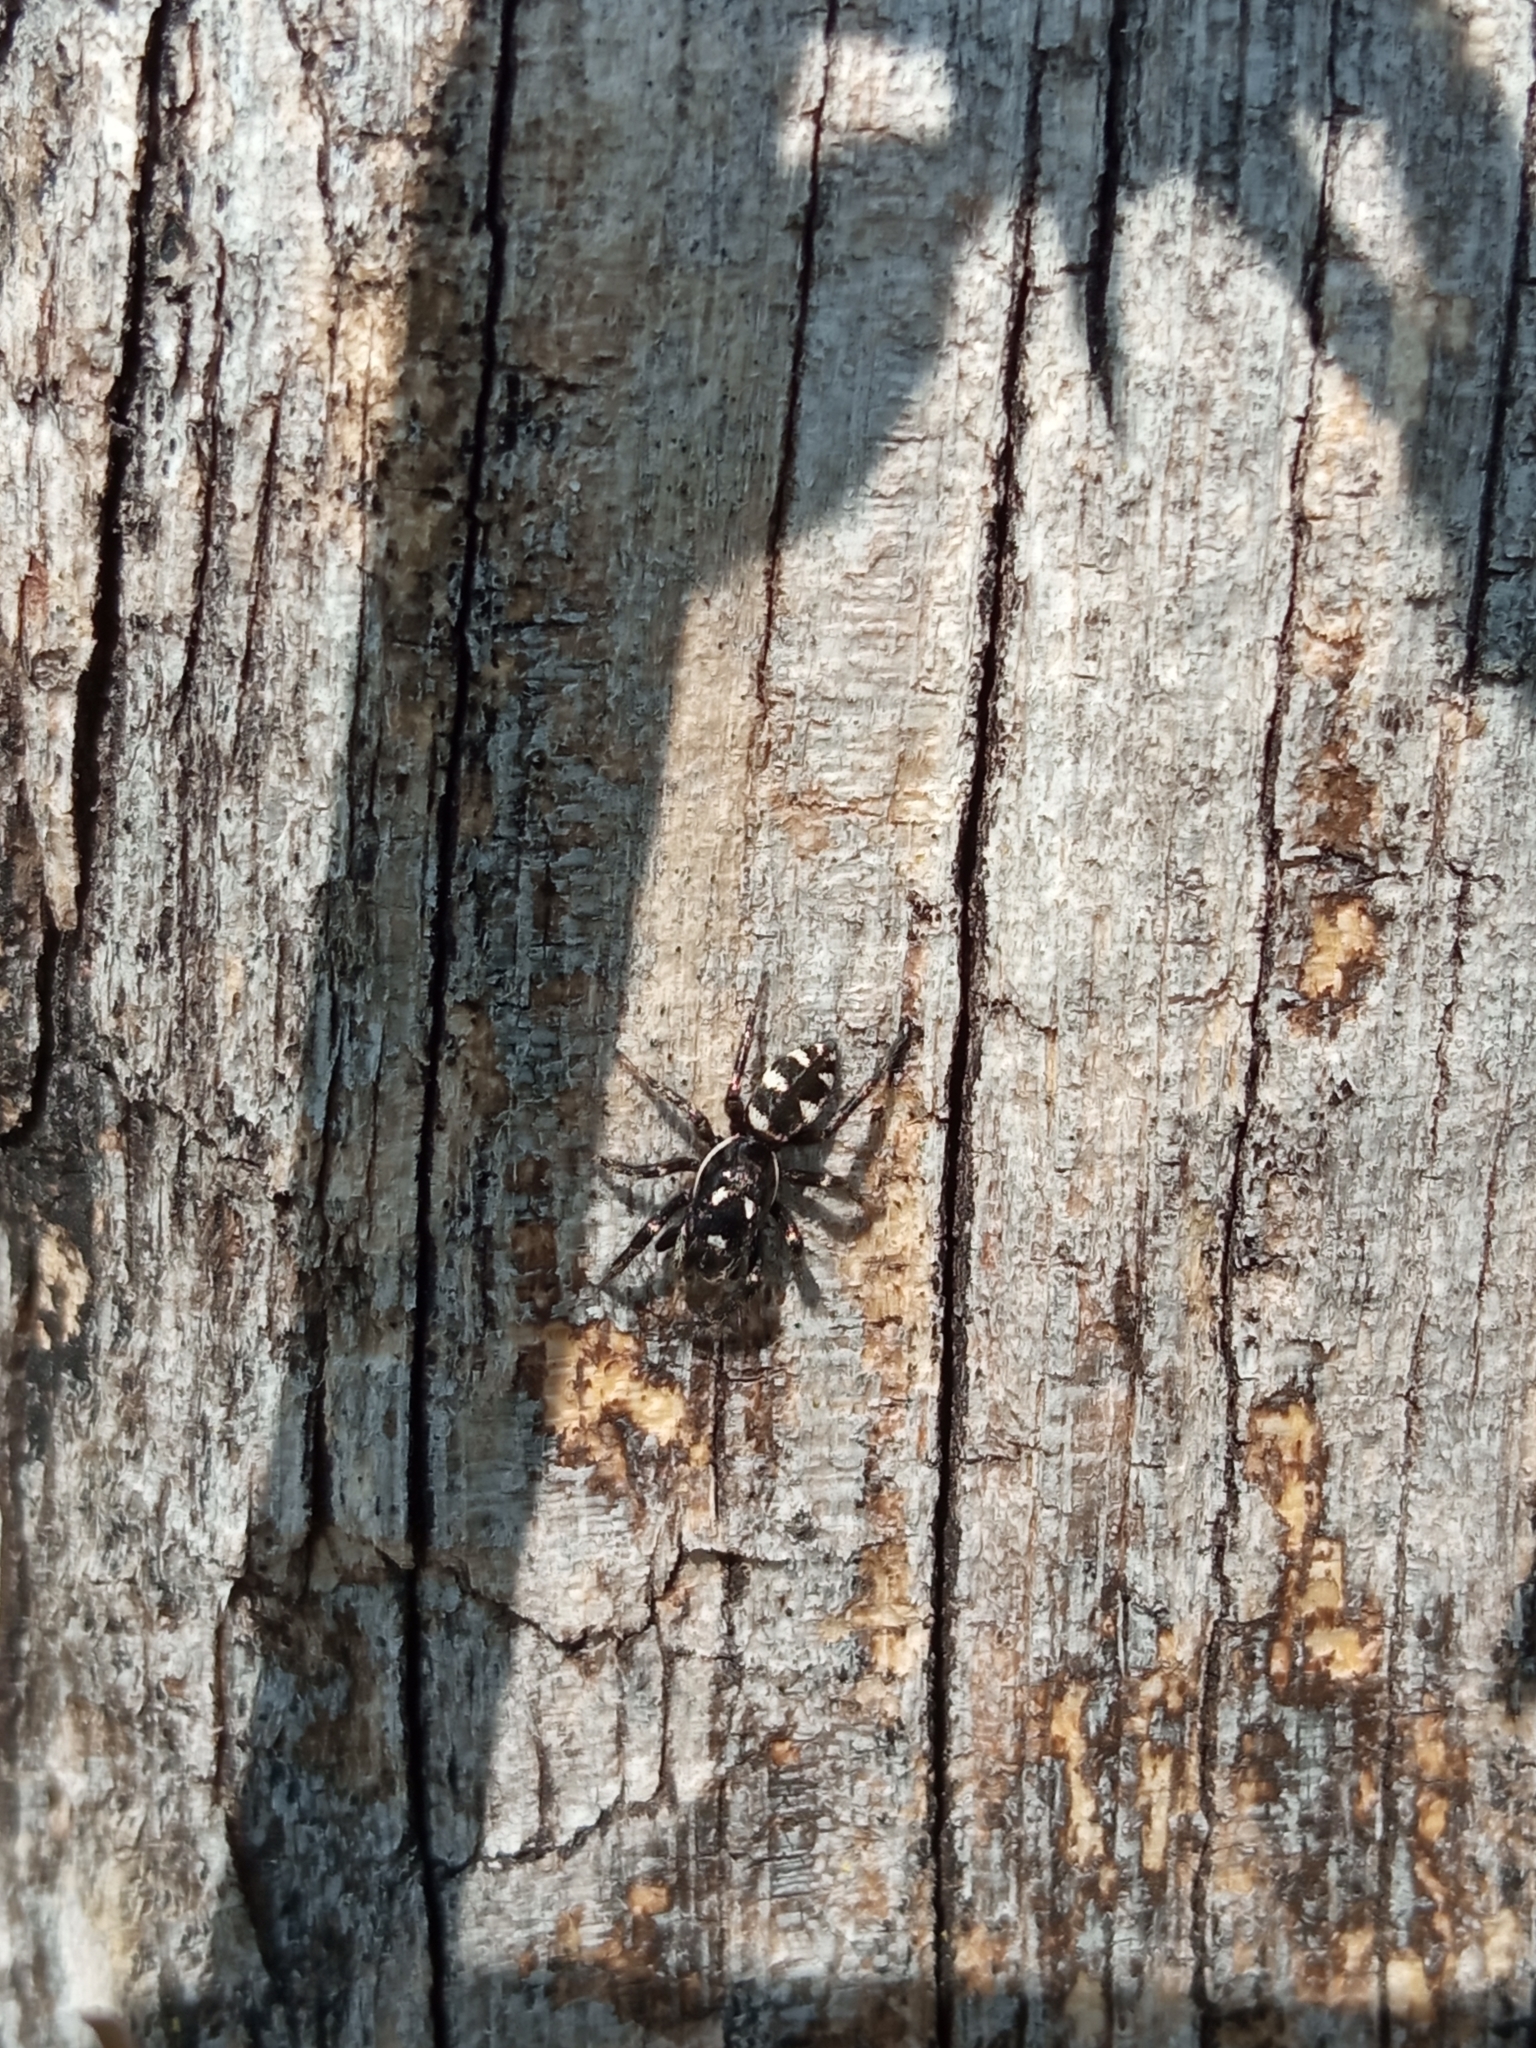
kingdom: Animalia
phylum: Arthropoda
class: Arachnida
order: Araneae
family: Salticidae
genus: Salticus
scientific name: Salticus scenicus
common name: Zebra jumper
